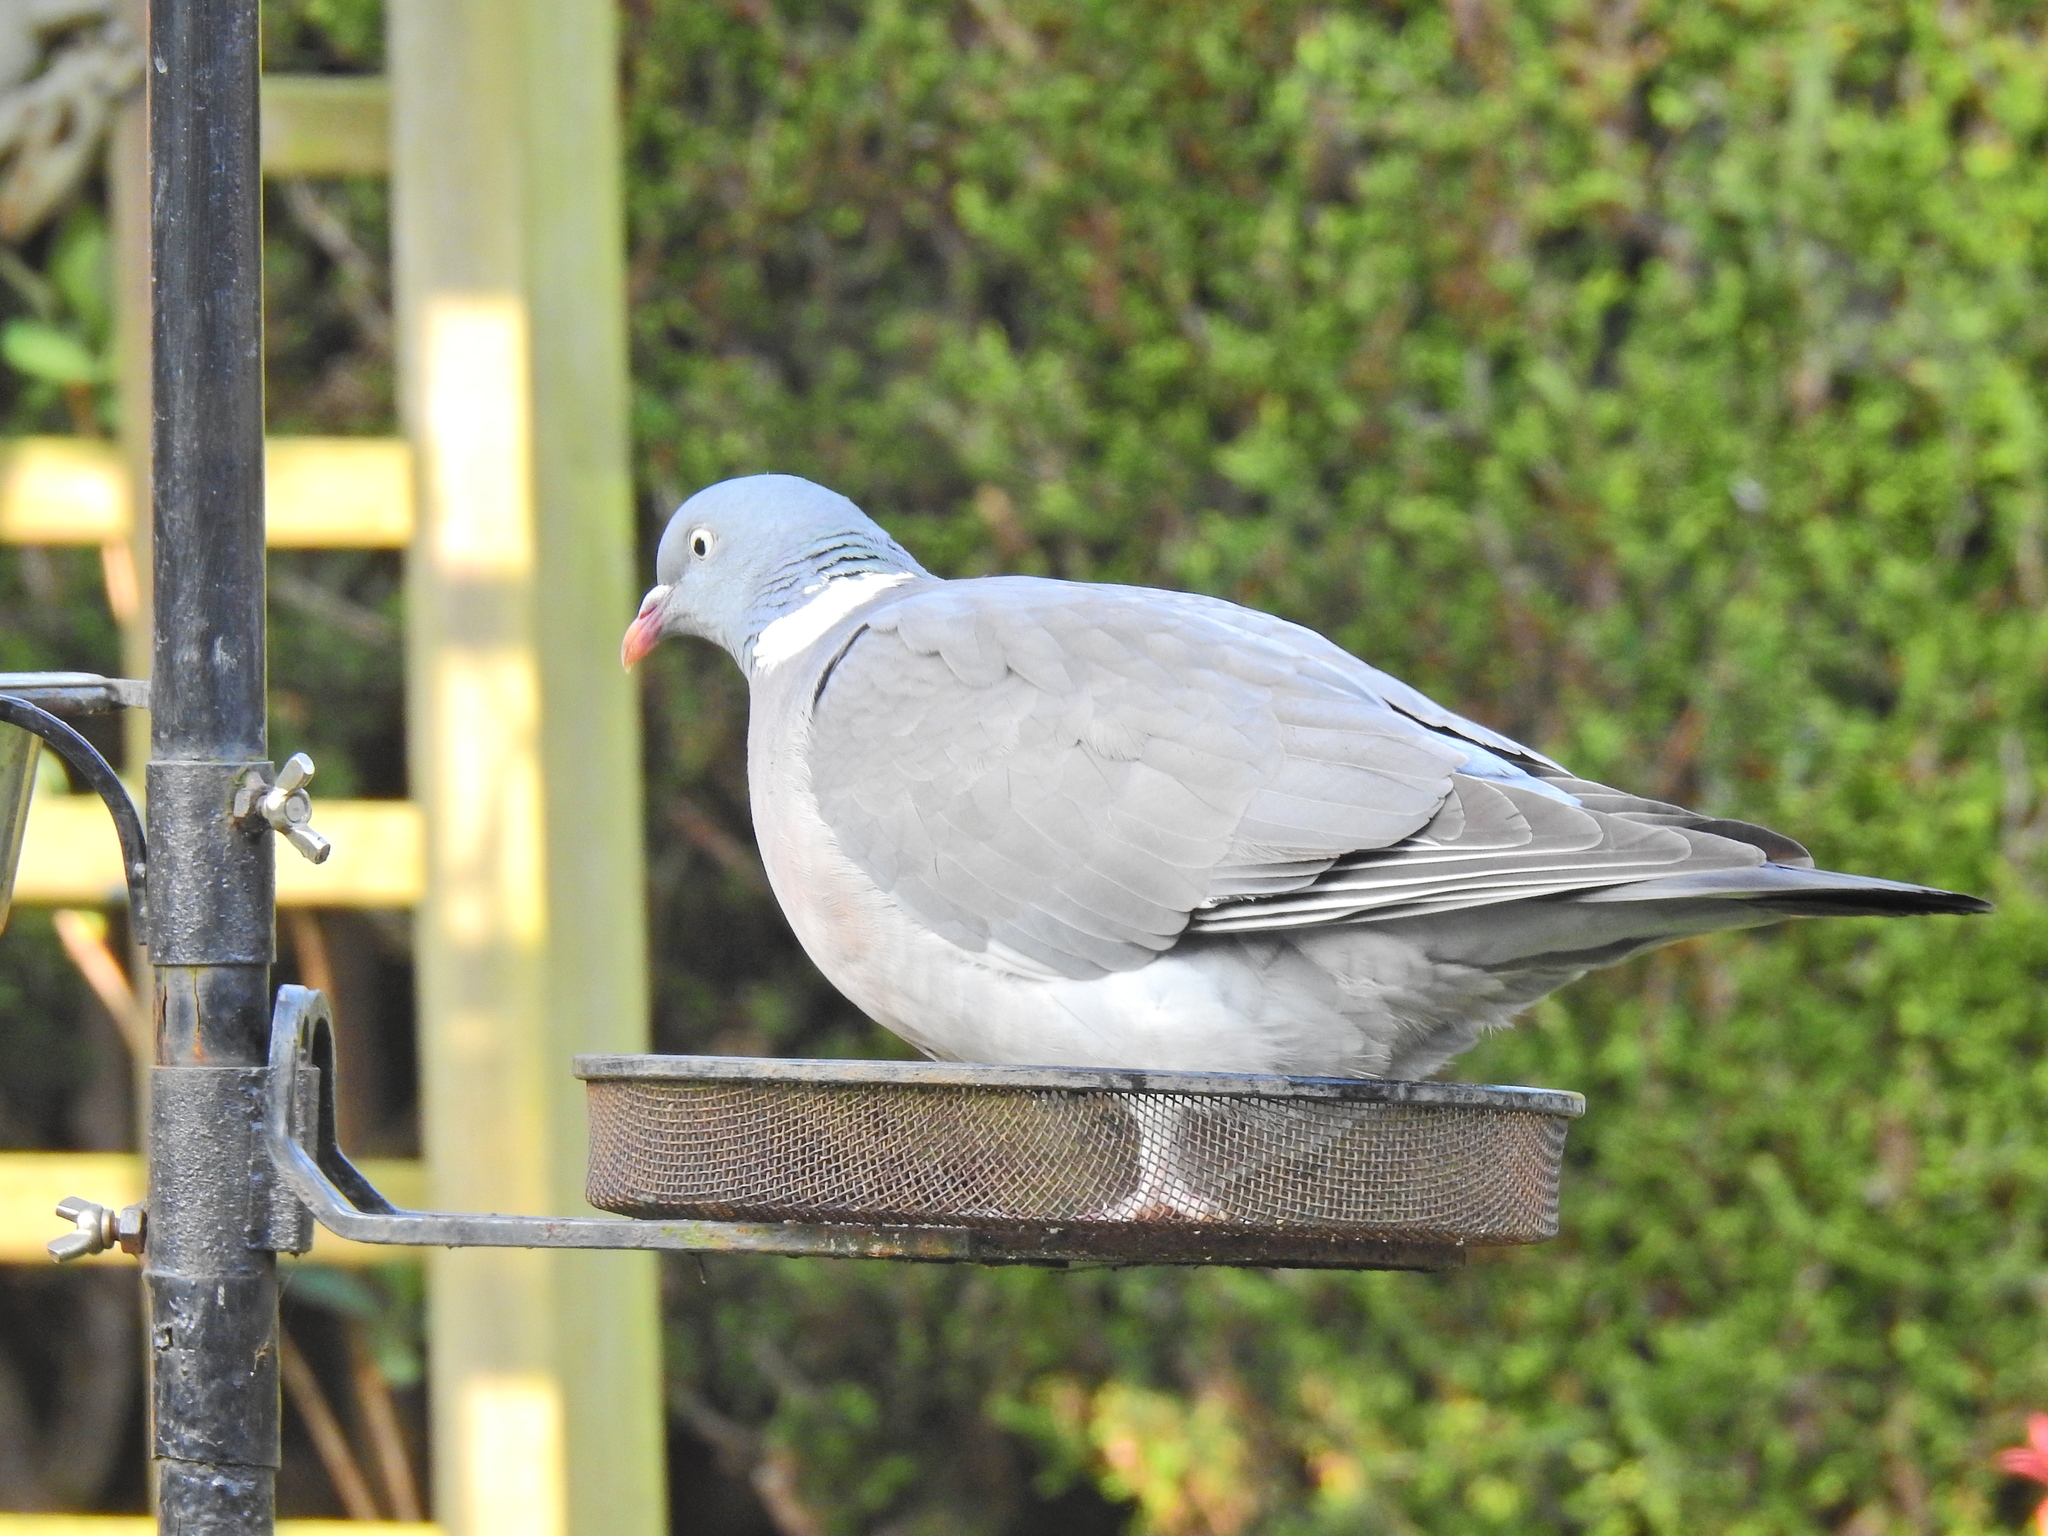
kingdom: Animalia
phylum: Chordata
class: Aves
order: Columbiformes
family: Columbidae
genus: Columba
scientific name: Columba palumbus
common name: Common wood pigeon
